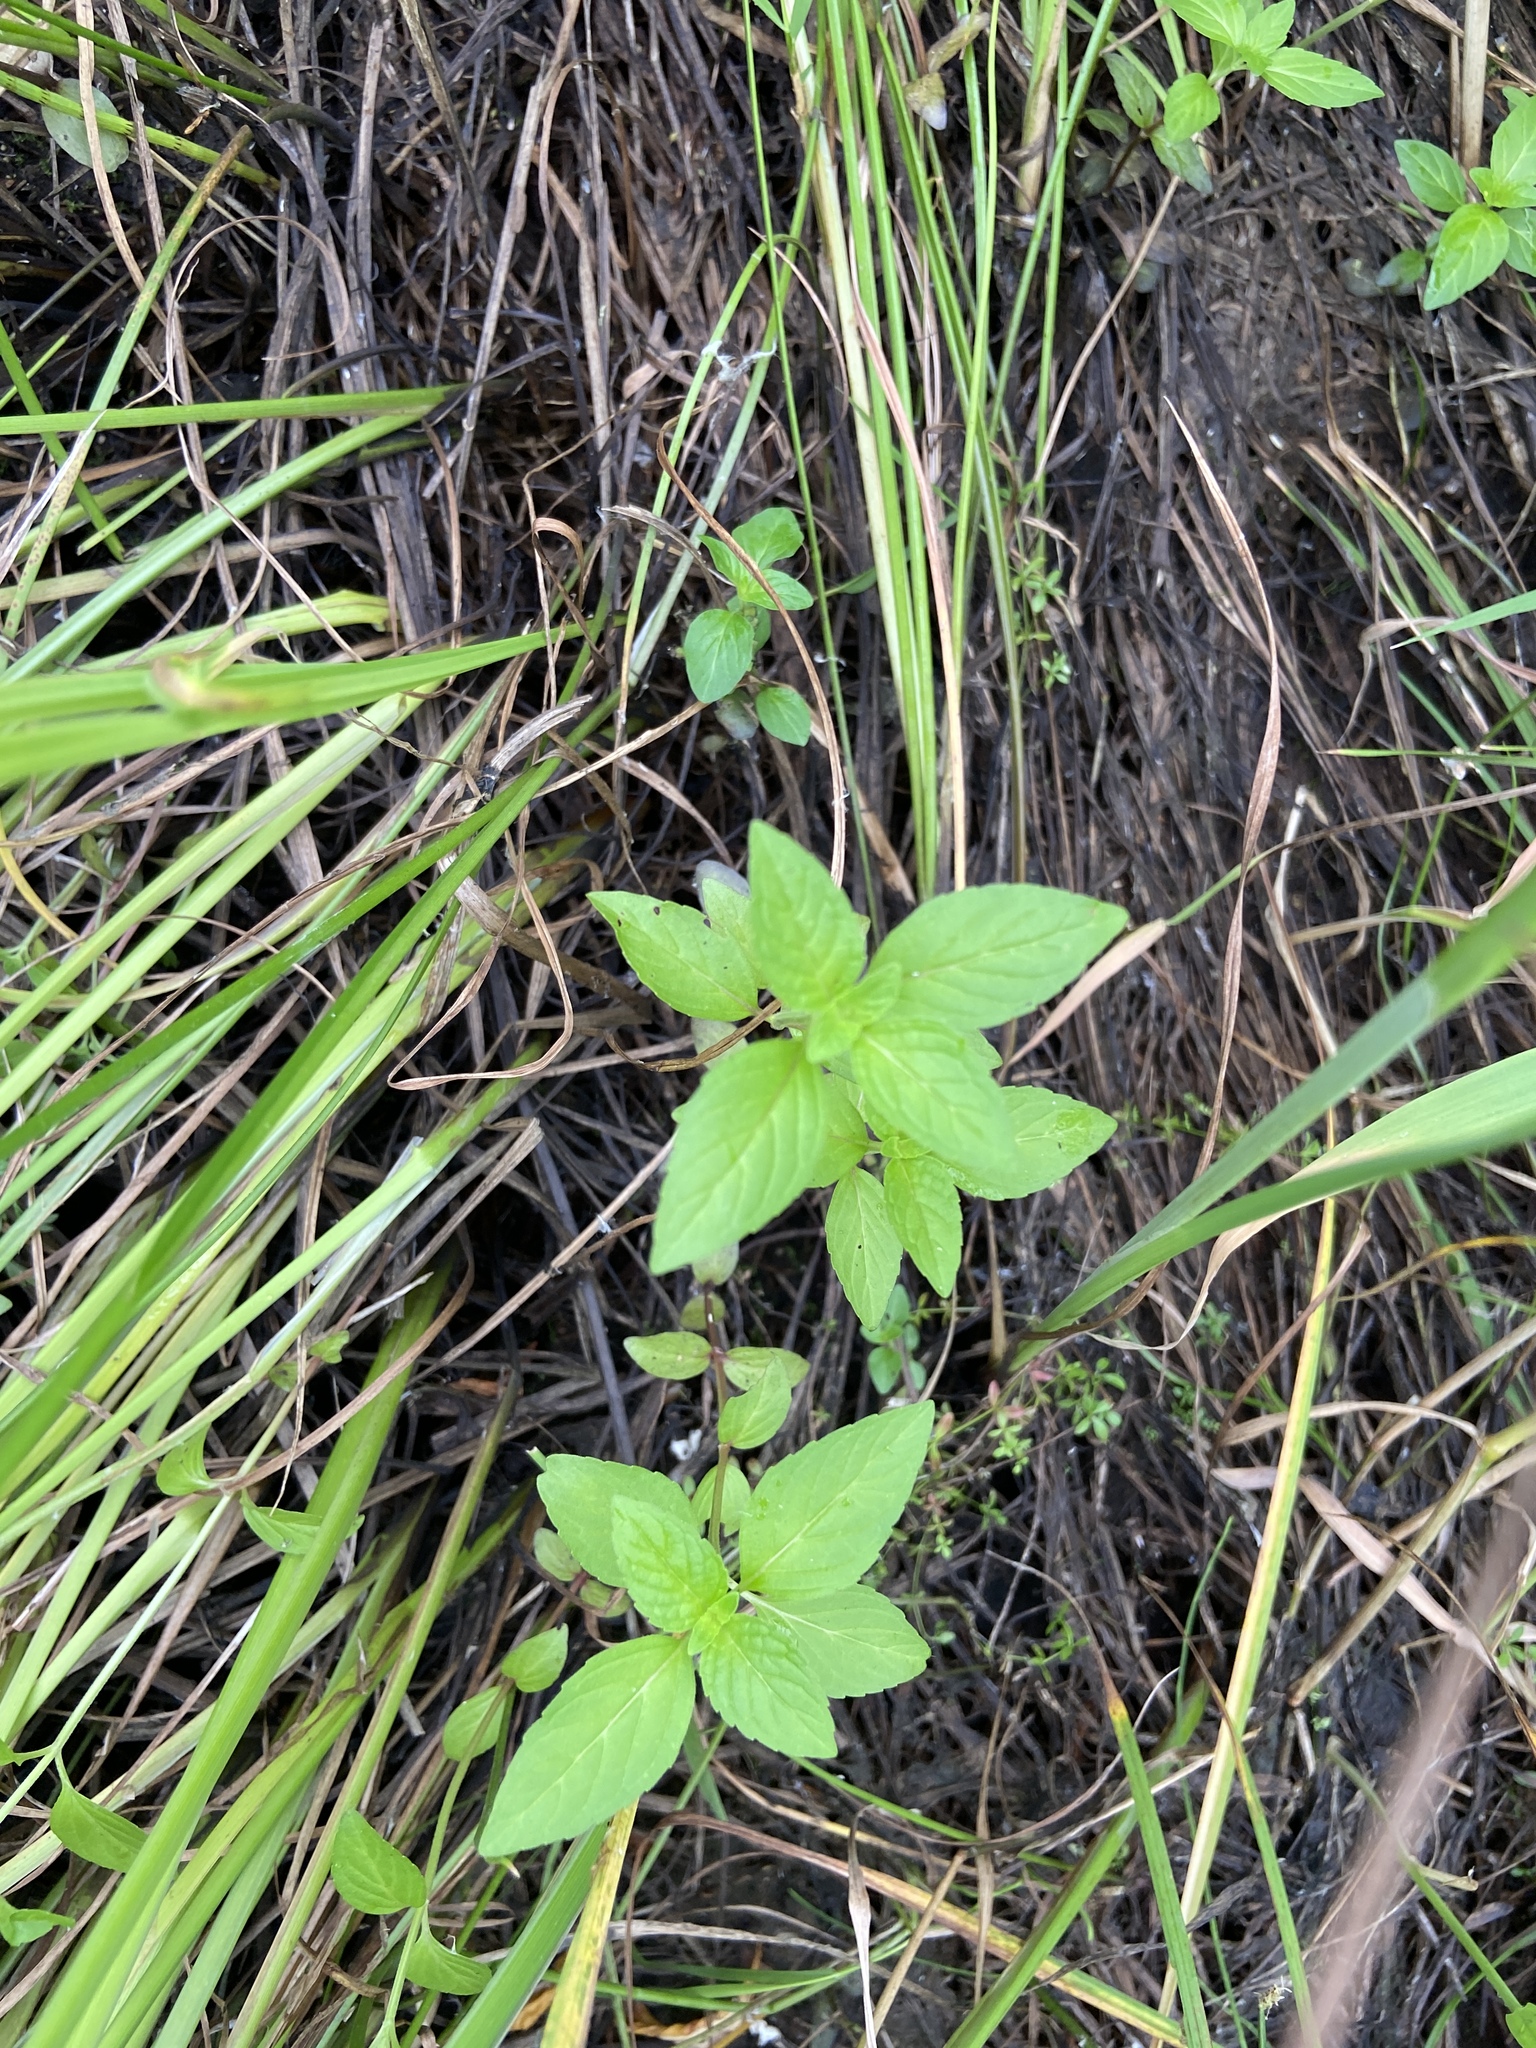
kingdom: Plantae
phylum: Tracheophyta
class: Magnoliopsida
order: Lamiales
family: Lamiaceae
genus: Mentha
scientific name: Mentha arvensis
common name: Corn mint
